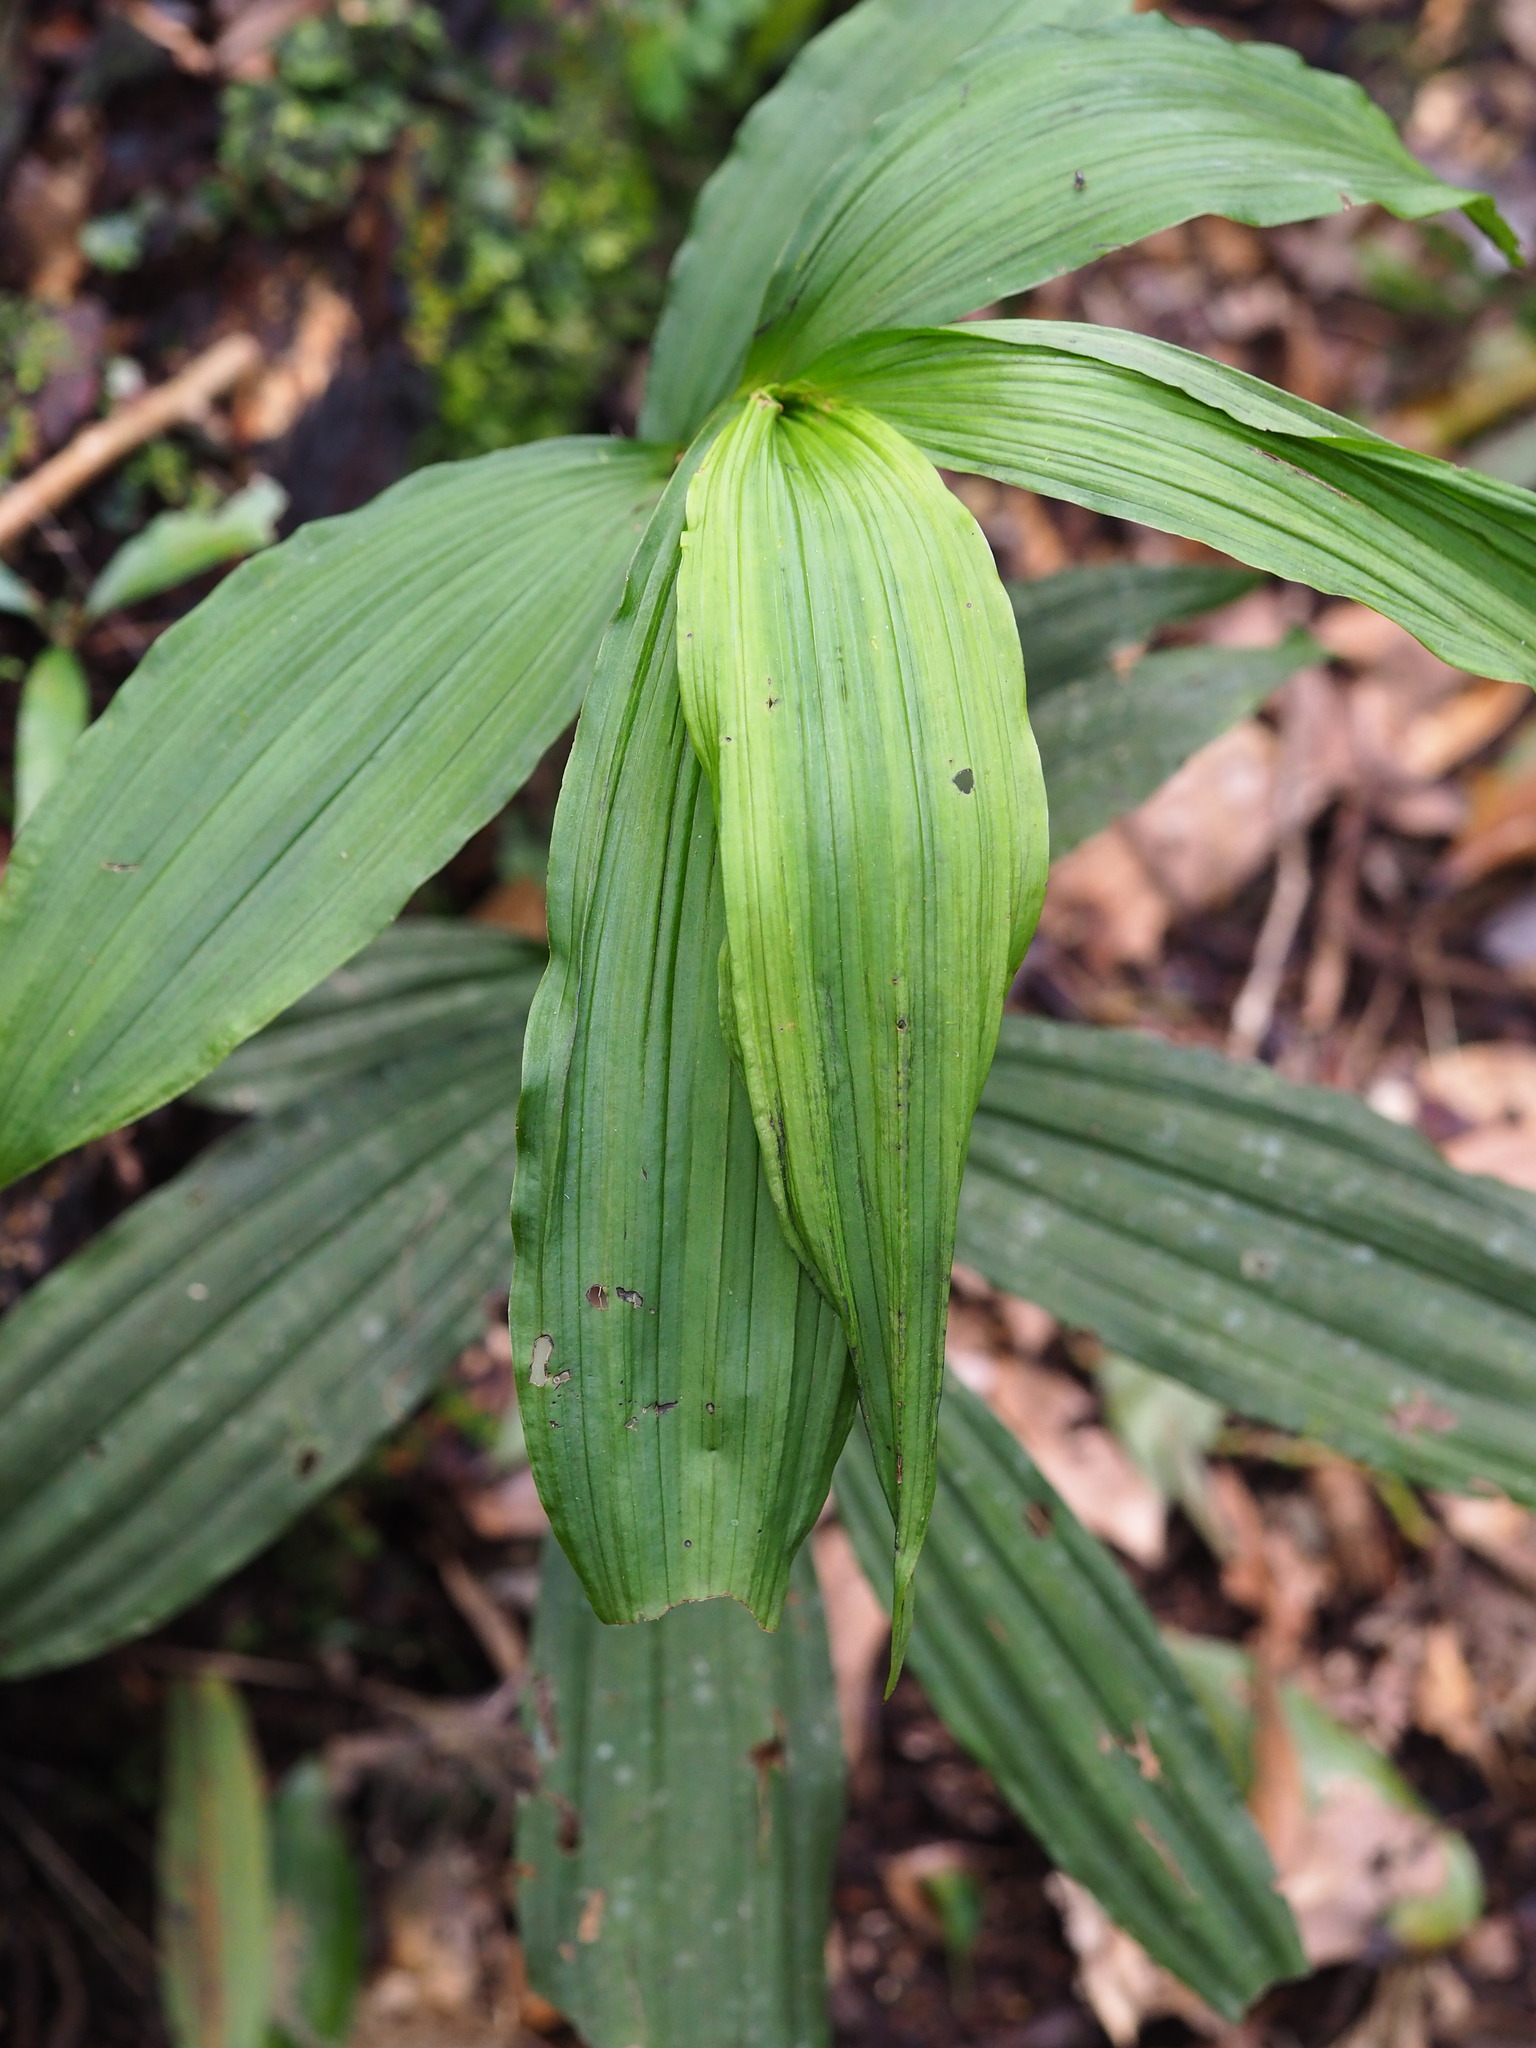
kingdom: Plantae
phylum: Tracheophyta
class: Liliopsida
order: Asparagales
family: Orchidaceae
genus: Calanthe
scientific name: Calanthe obcordata
